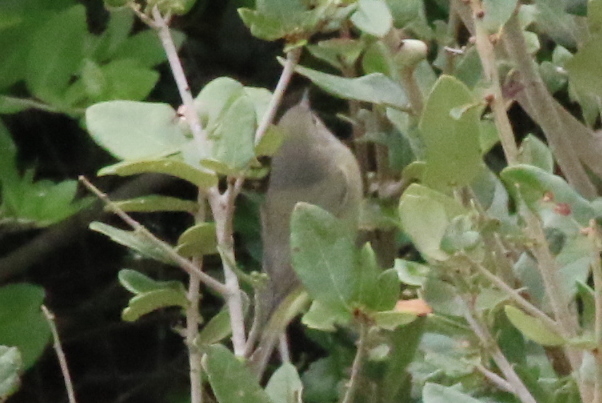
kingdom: Animalia
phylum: Chordata
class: Aves
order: Passeriformes
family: Parulidae
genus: Leiothlypis
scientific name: Leiothlypis celata
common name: Orange-crowned warbler
